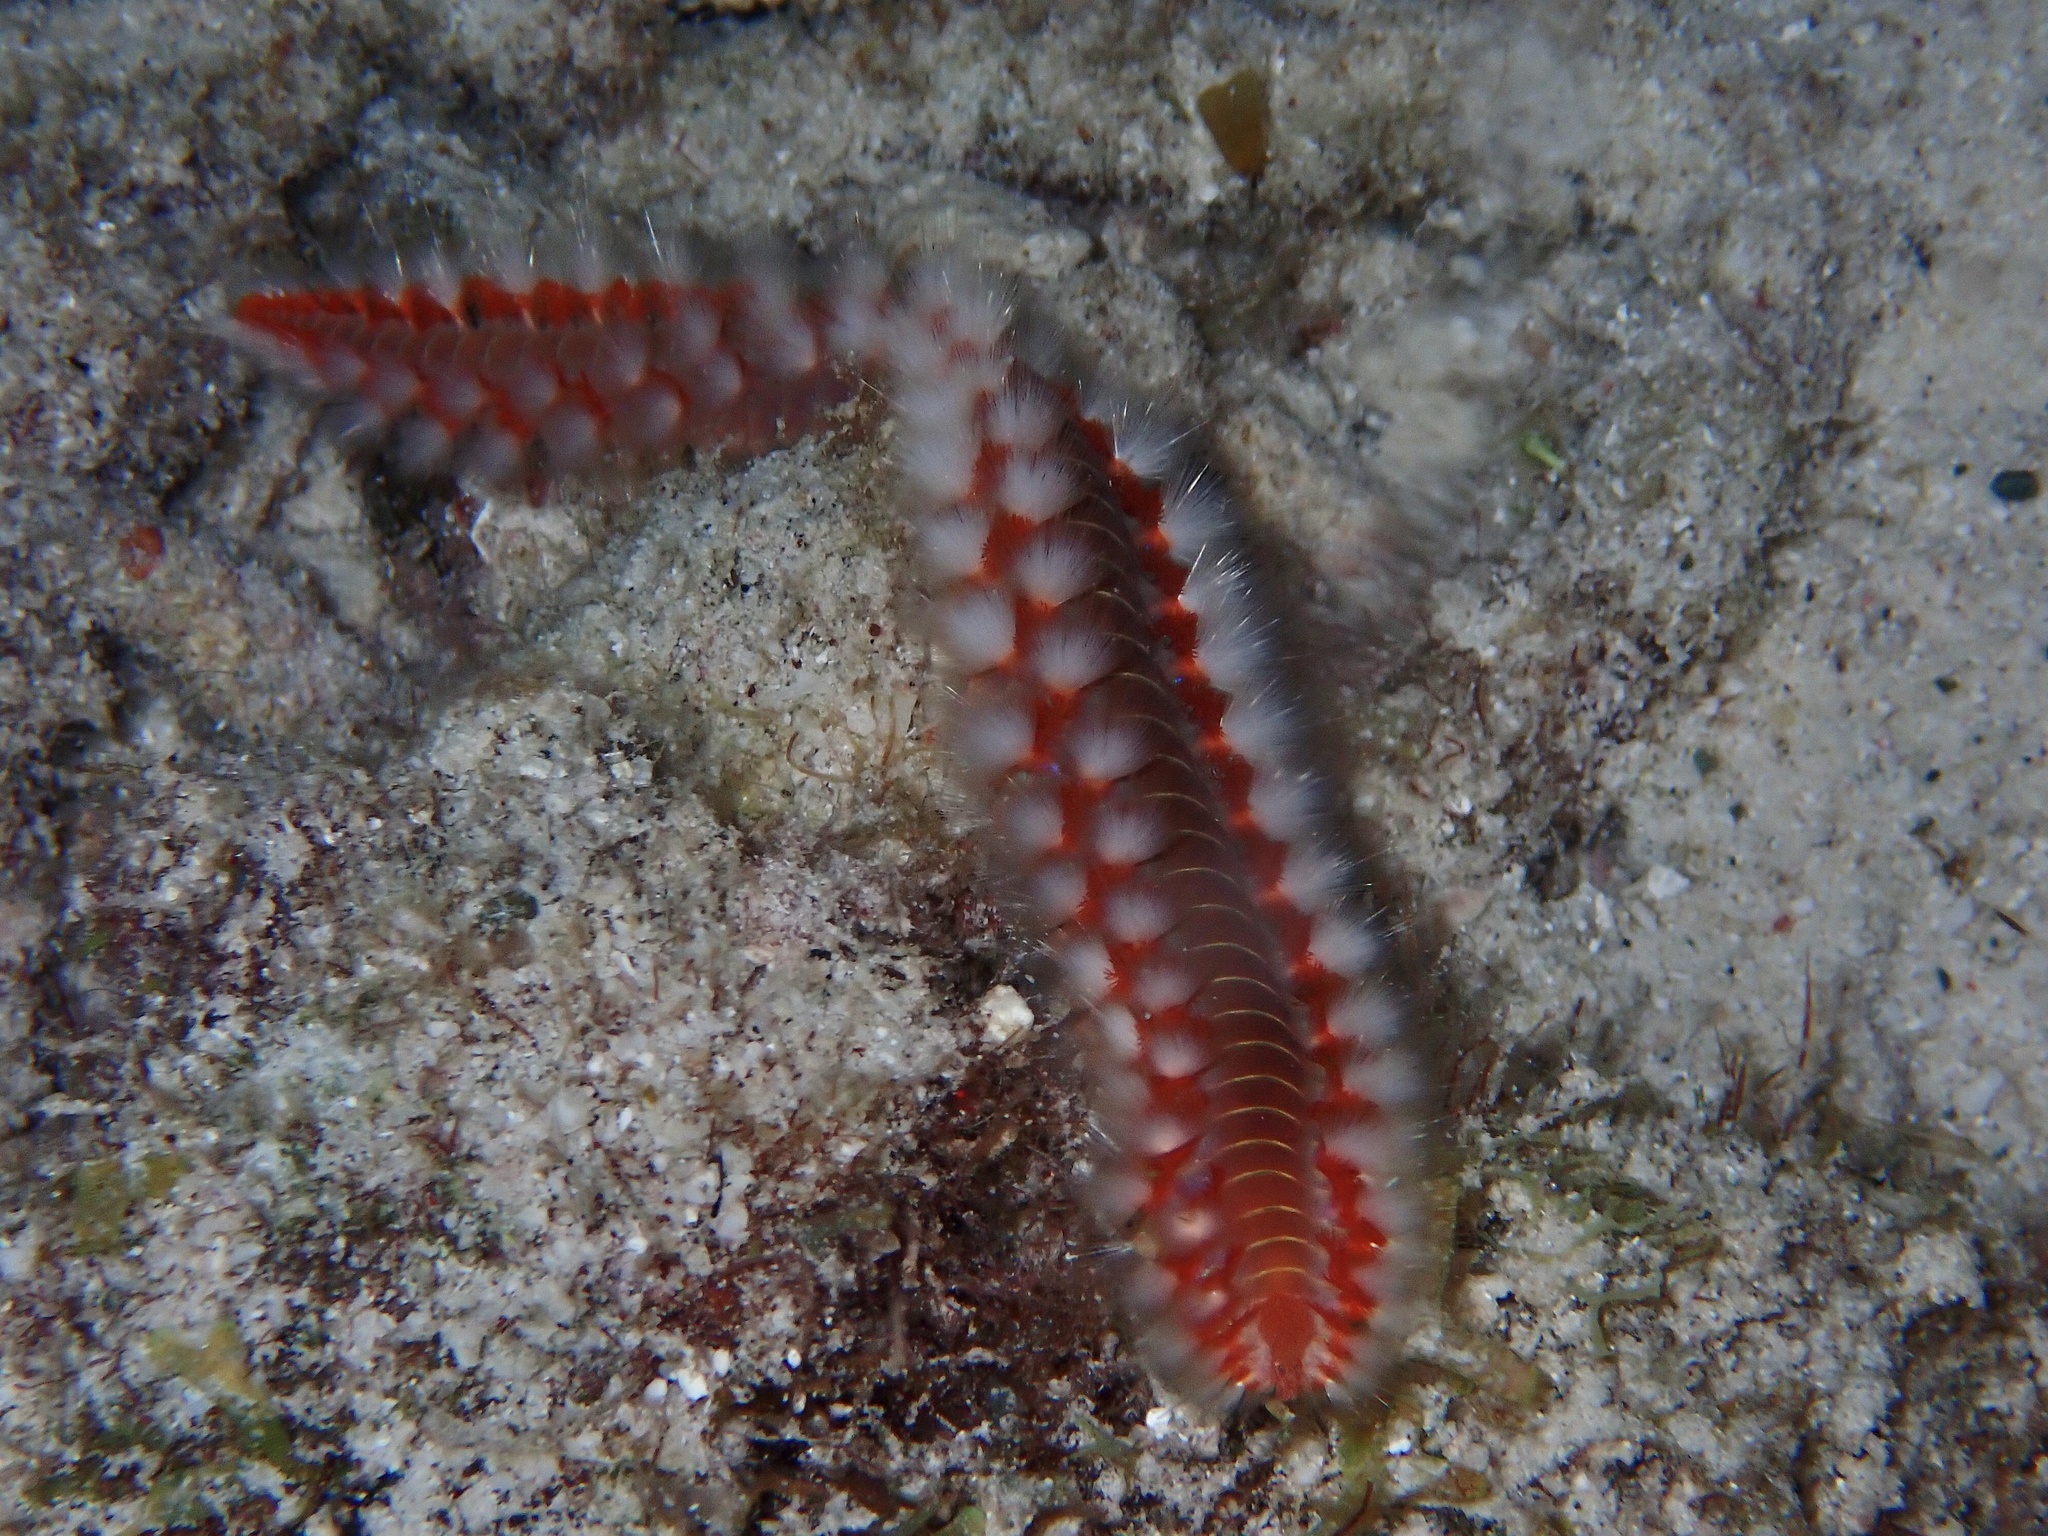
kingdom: Animalia
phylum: Annelida
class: Polychaeta
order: Amphinomida
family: Amphinomidae
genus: Hermodice
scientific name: Hermodice carunculata
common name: Bearded fireworm
